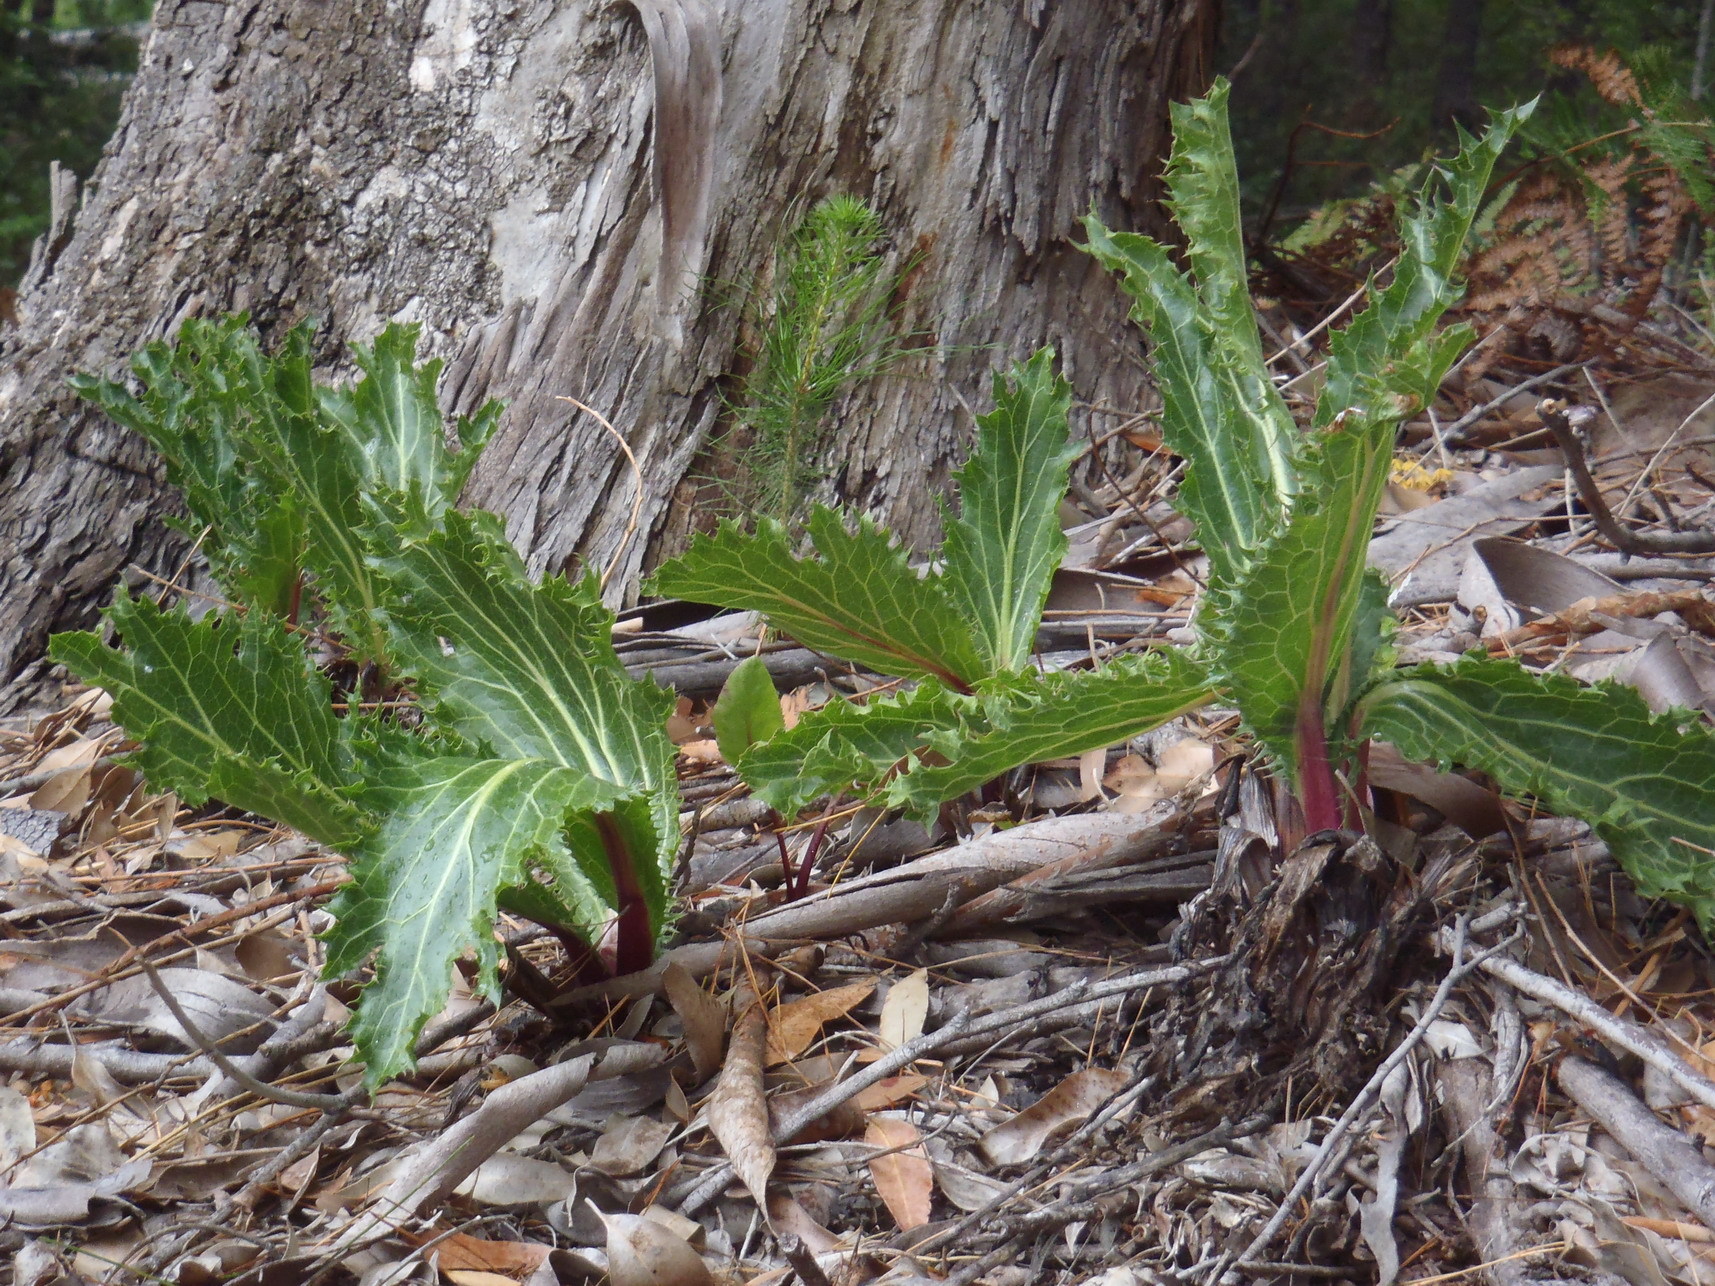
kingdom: Plantae
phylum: Tracheophyta
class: Magnoliopsida
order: Apiales
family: Apiaceae
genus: Lichtensteinia
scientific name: Lichtensteinia lacera
